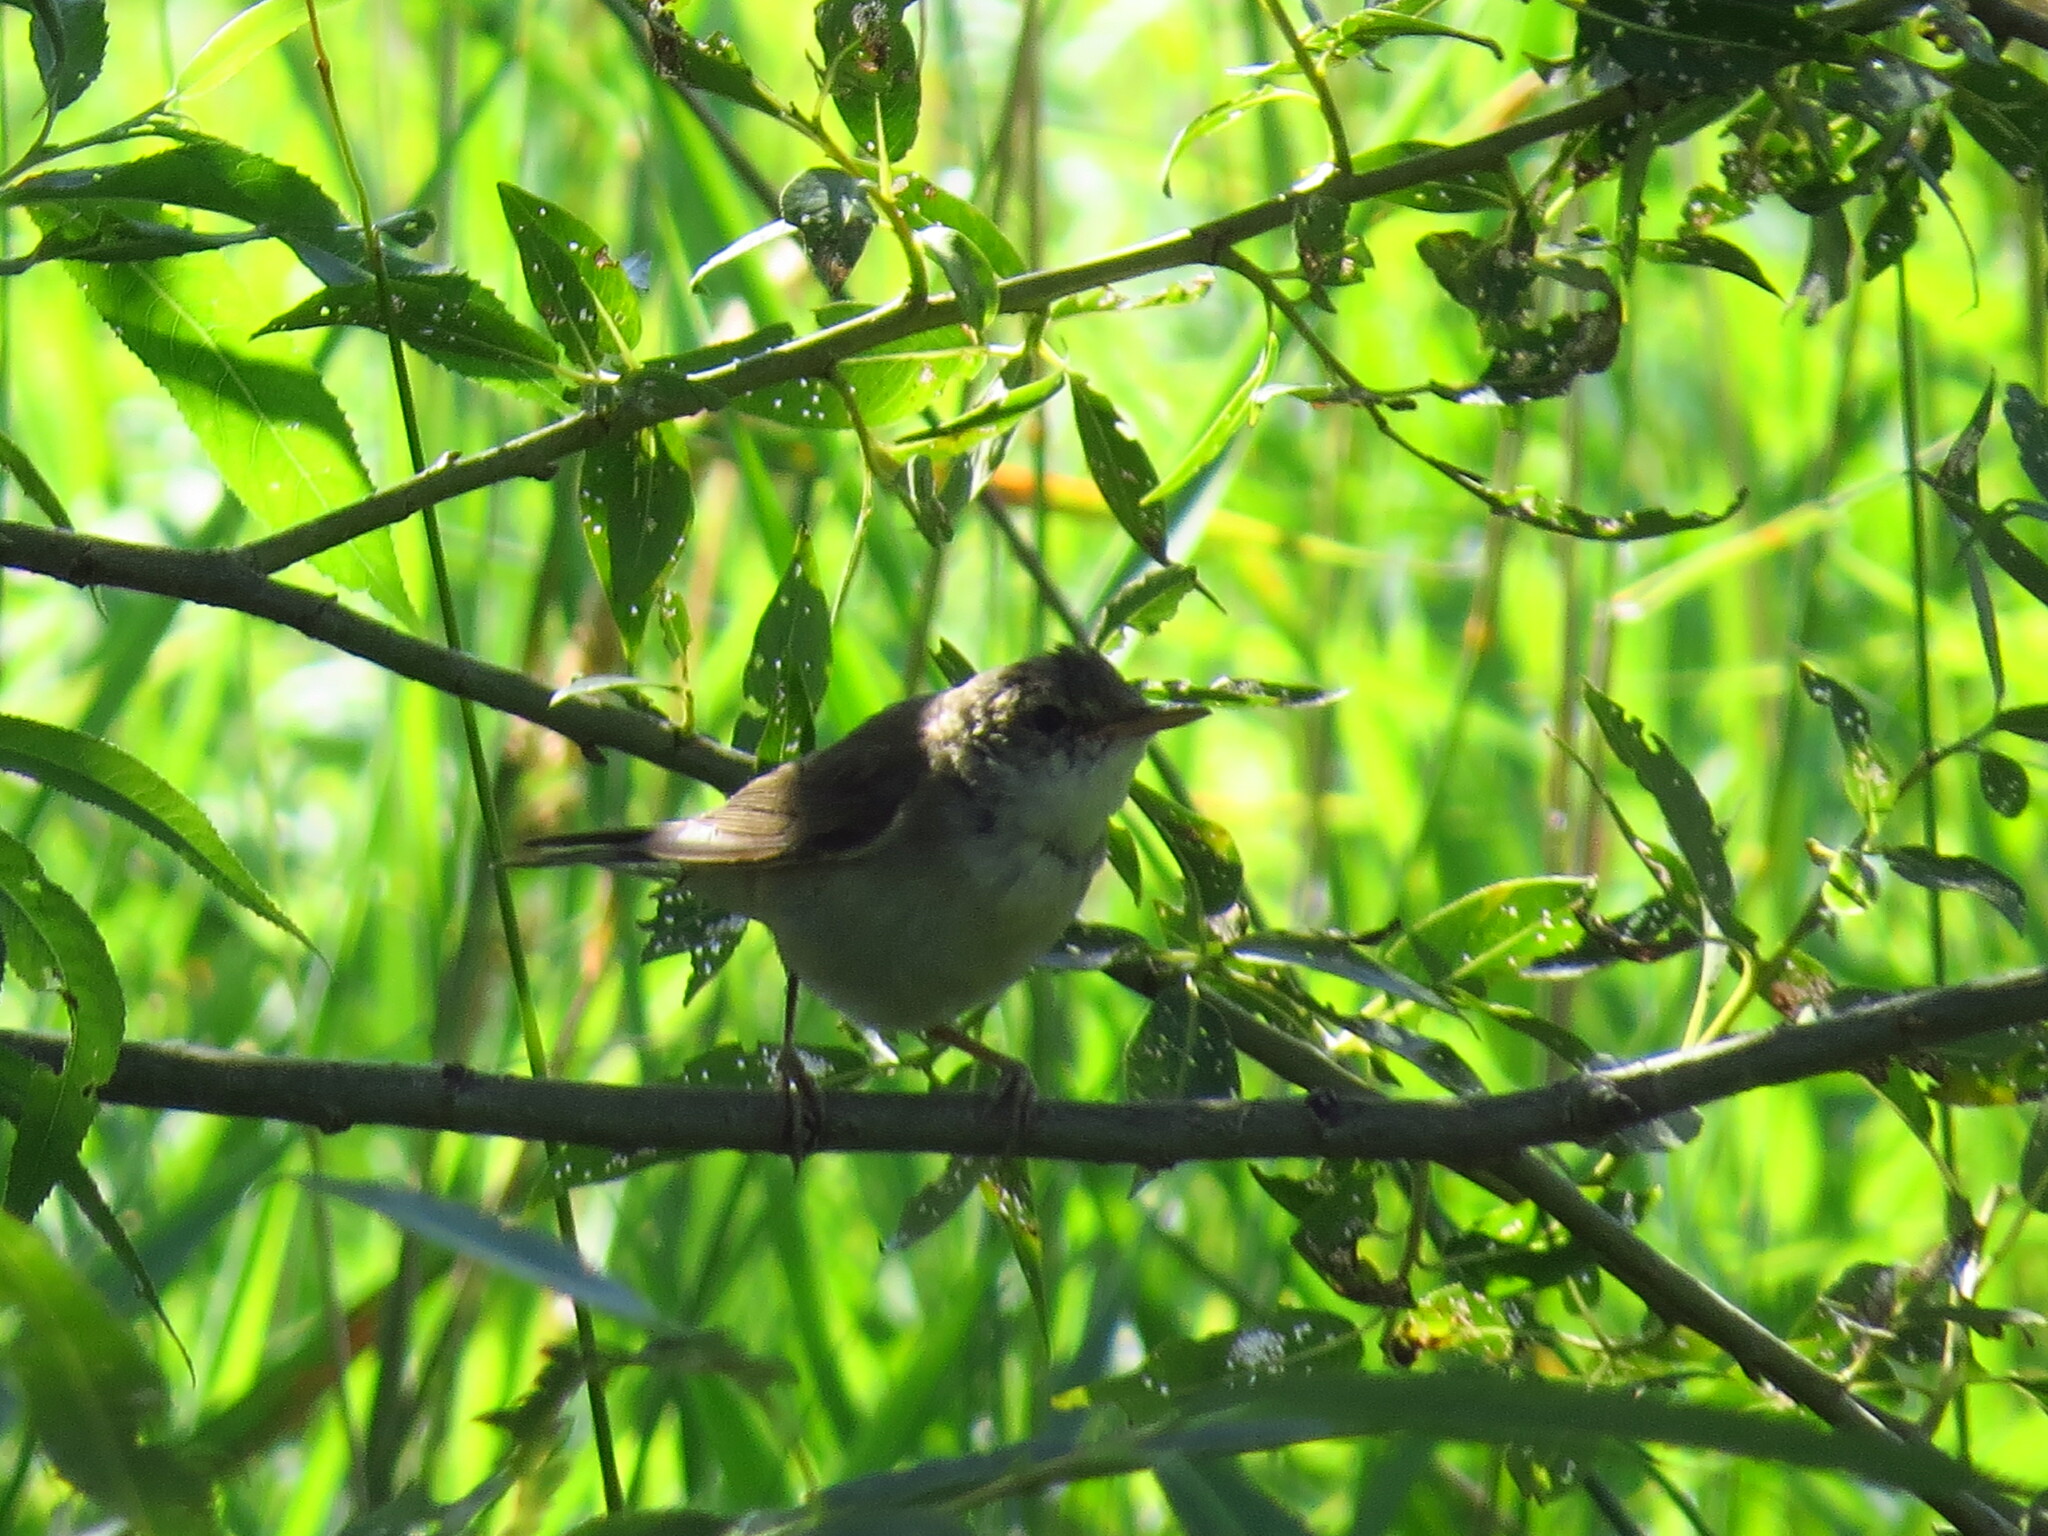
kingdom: Animalia
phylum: Chordata
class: Aves
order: Passeriformes
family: Sylviidae
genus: Sylvia
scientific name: Sylvia communis
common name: Common whitethroat
